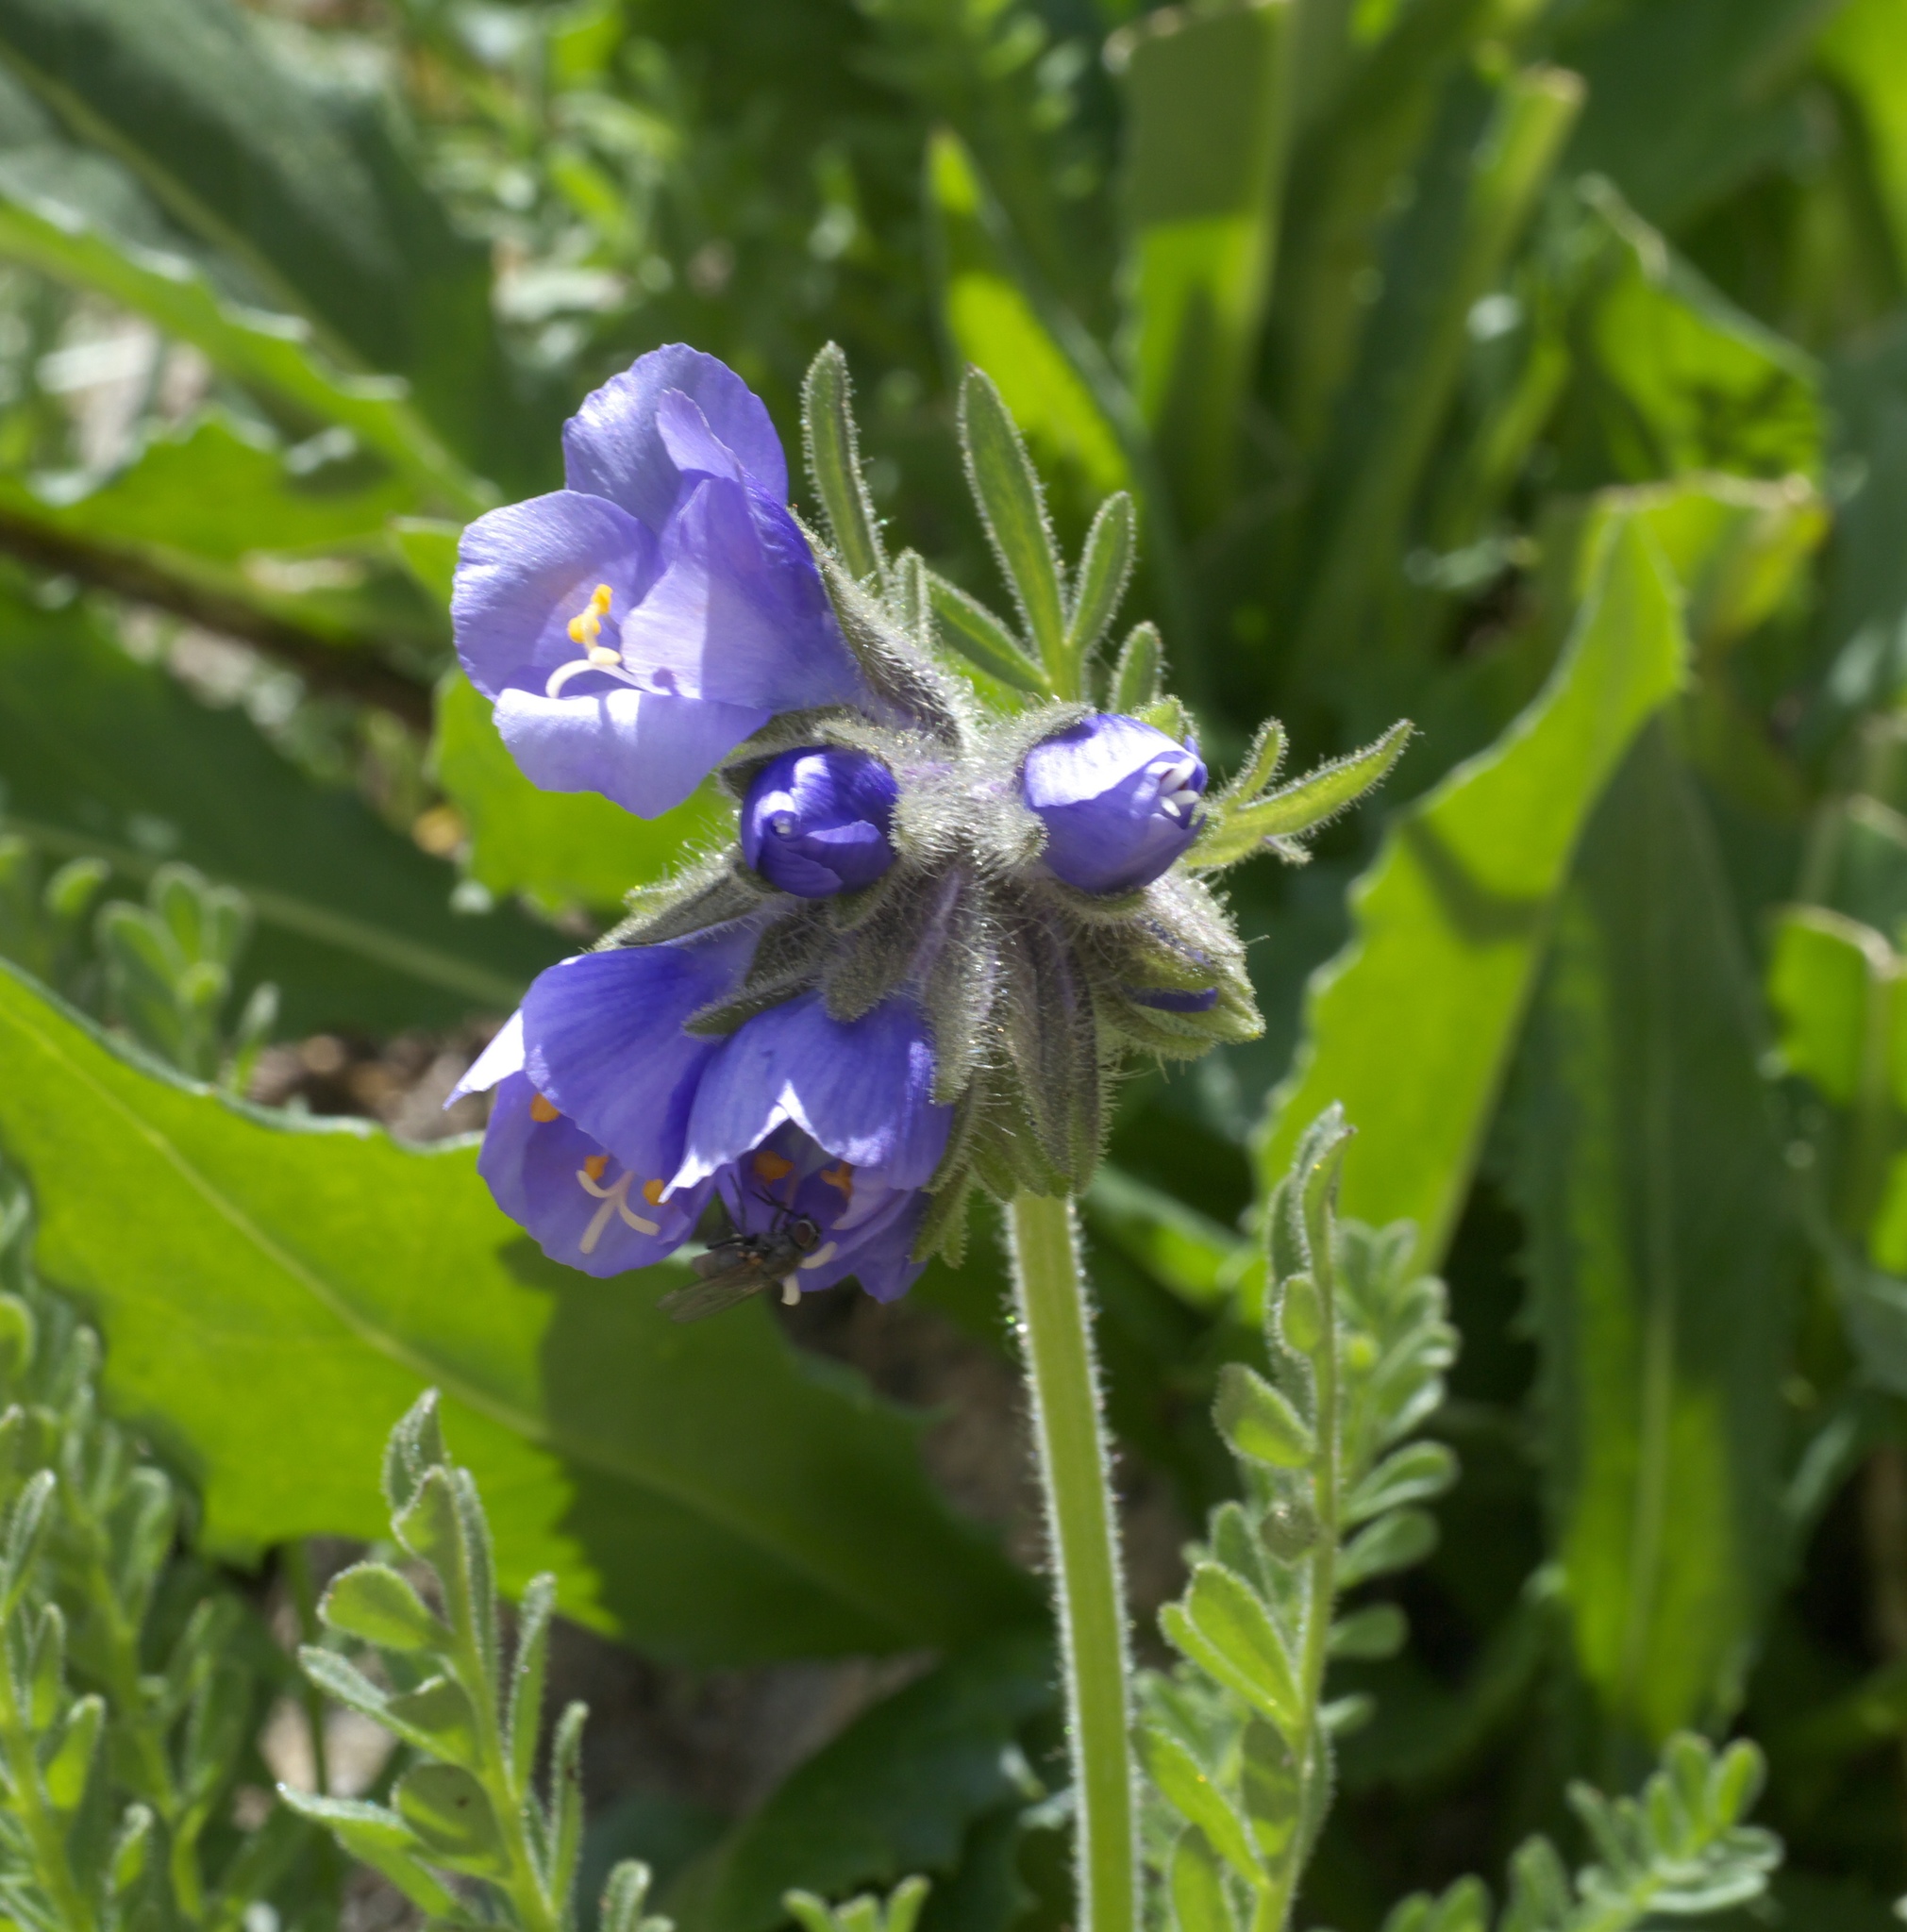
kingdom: Plantae
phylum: Tracheophyta
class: Magnoliopsida
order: Ericales
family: Polemoniaceae
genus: Polemonium
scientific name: Polemonium viscosum
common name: Skunk jacob's-ladder
